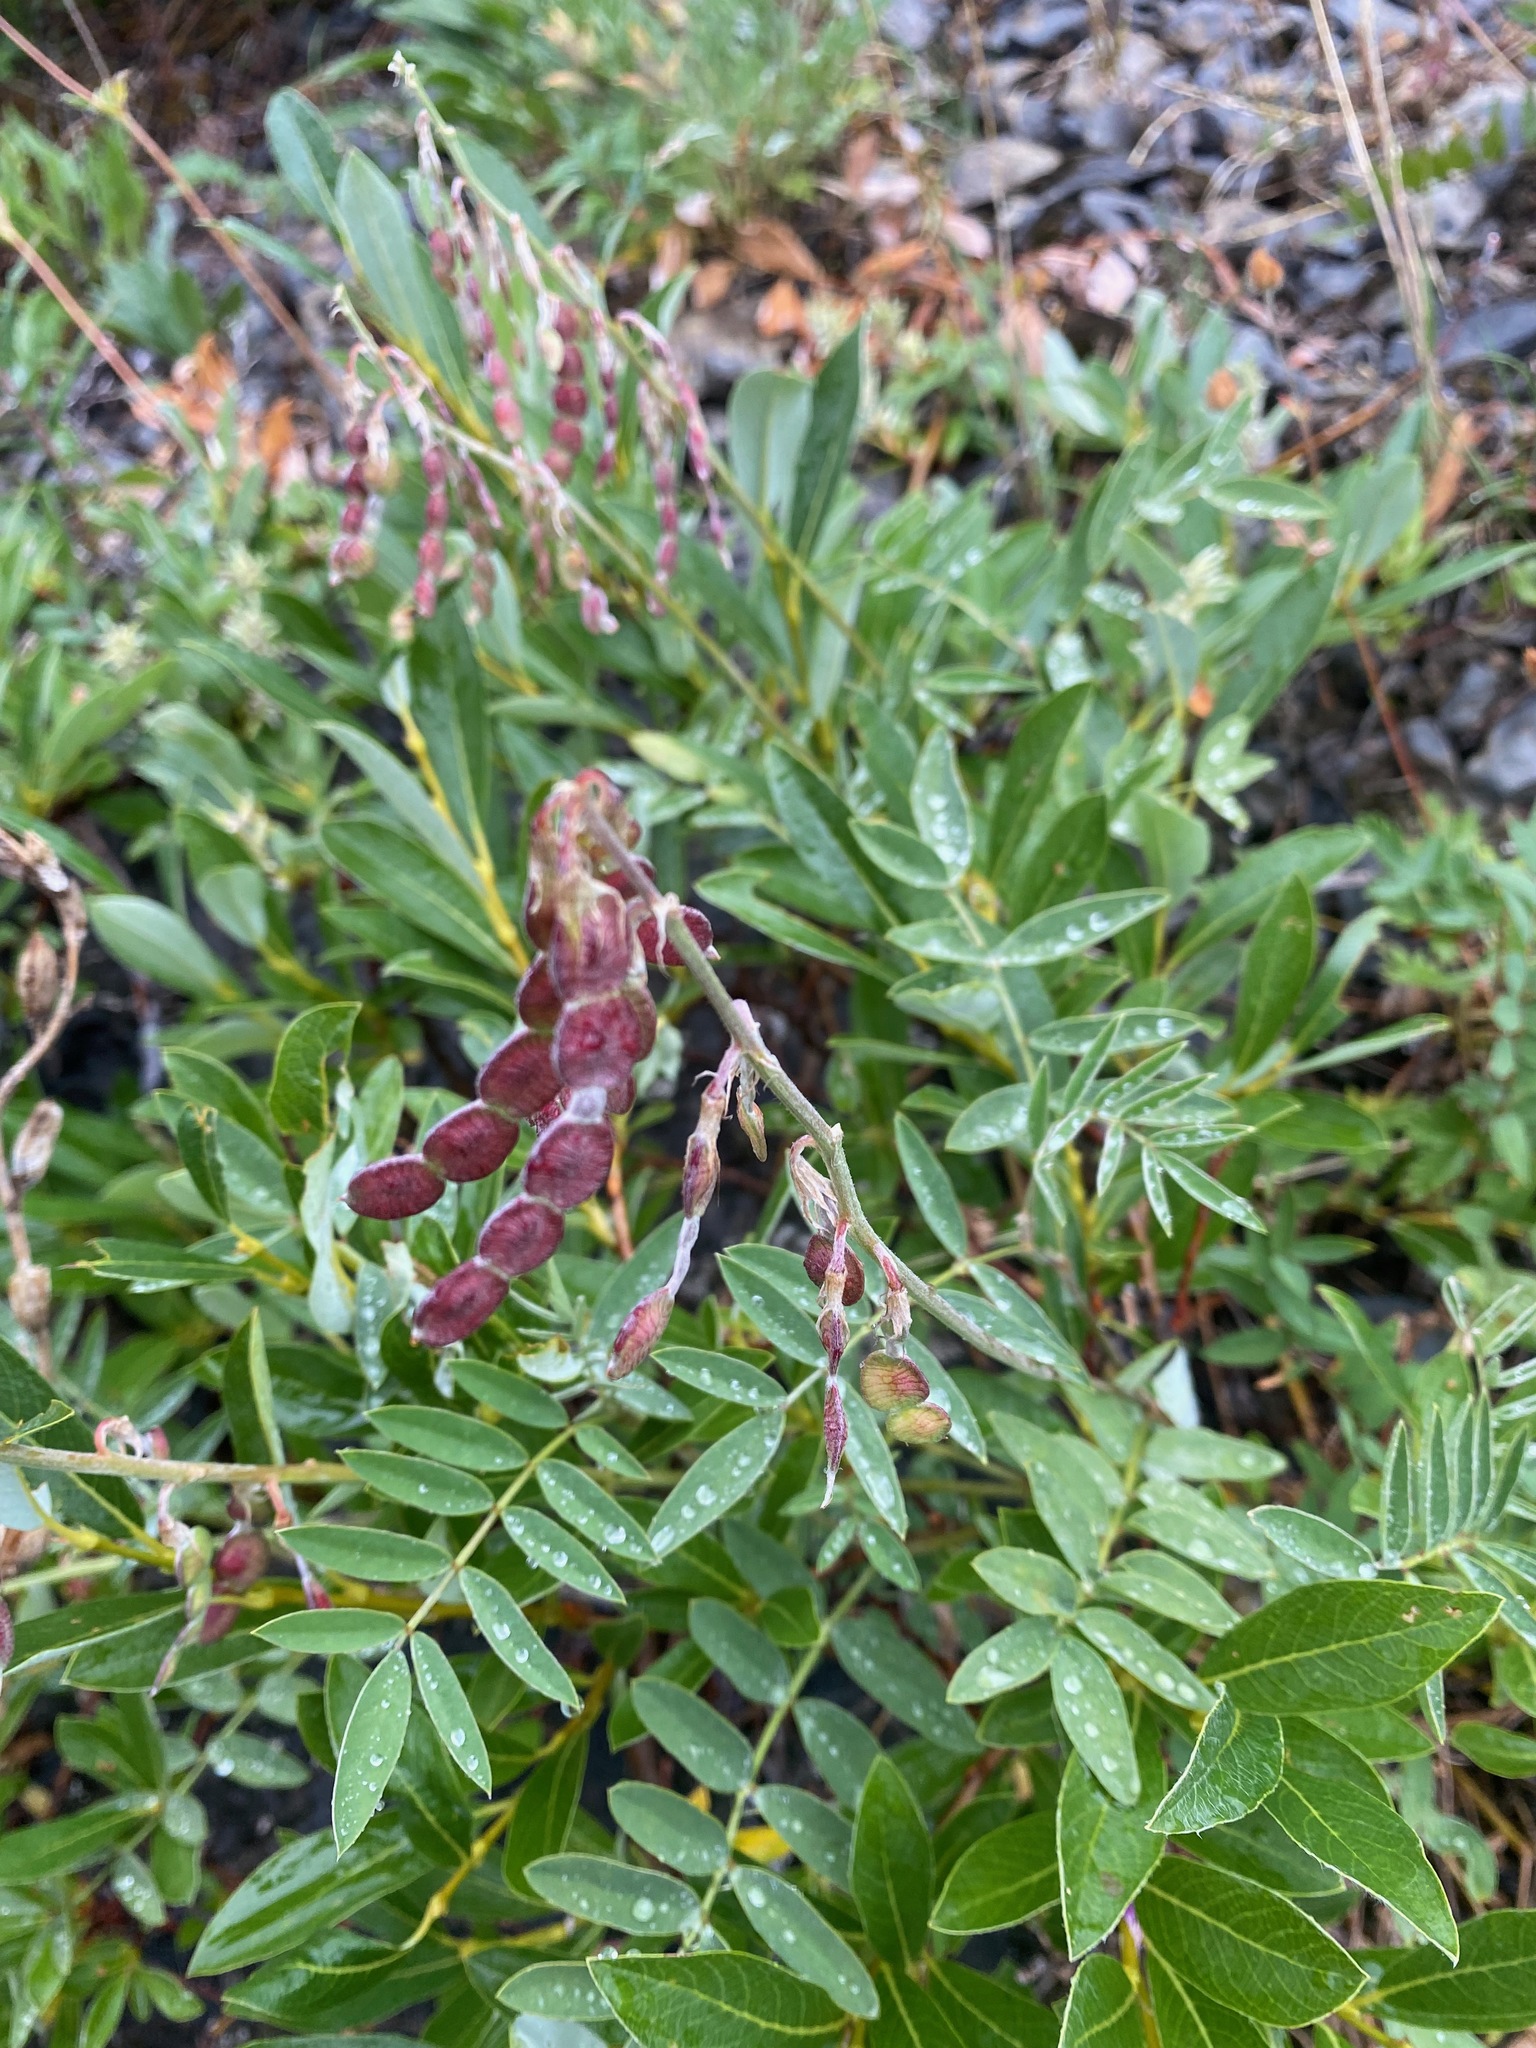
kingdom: Plantae
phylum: Tracheophyta
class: Magnoliopsida
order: Fabales
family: Fabaceae
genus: Hedysarum
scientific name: Hedysarum boreale
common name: Northern sweet-vetch
